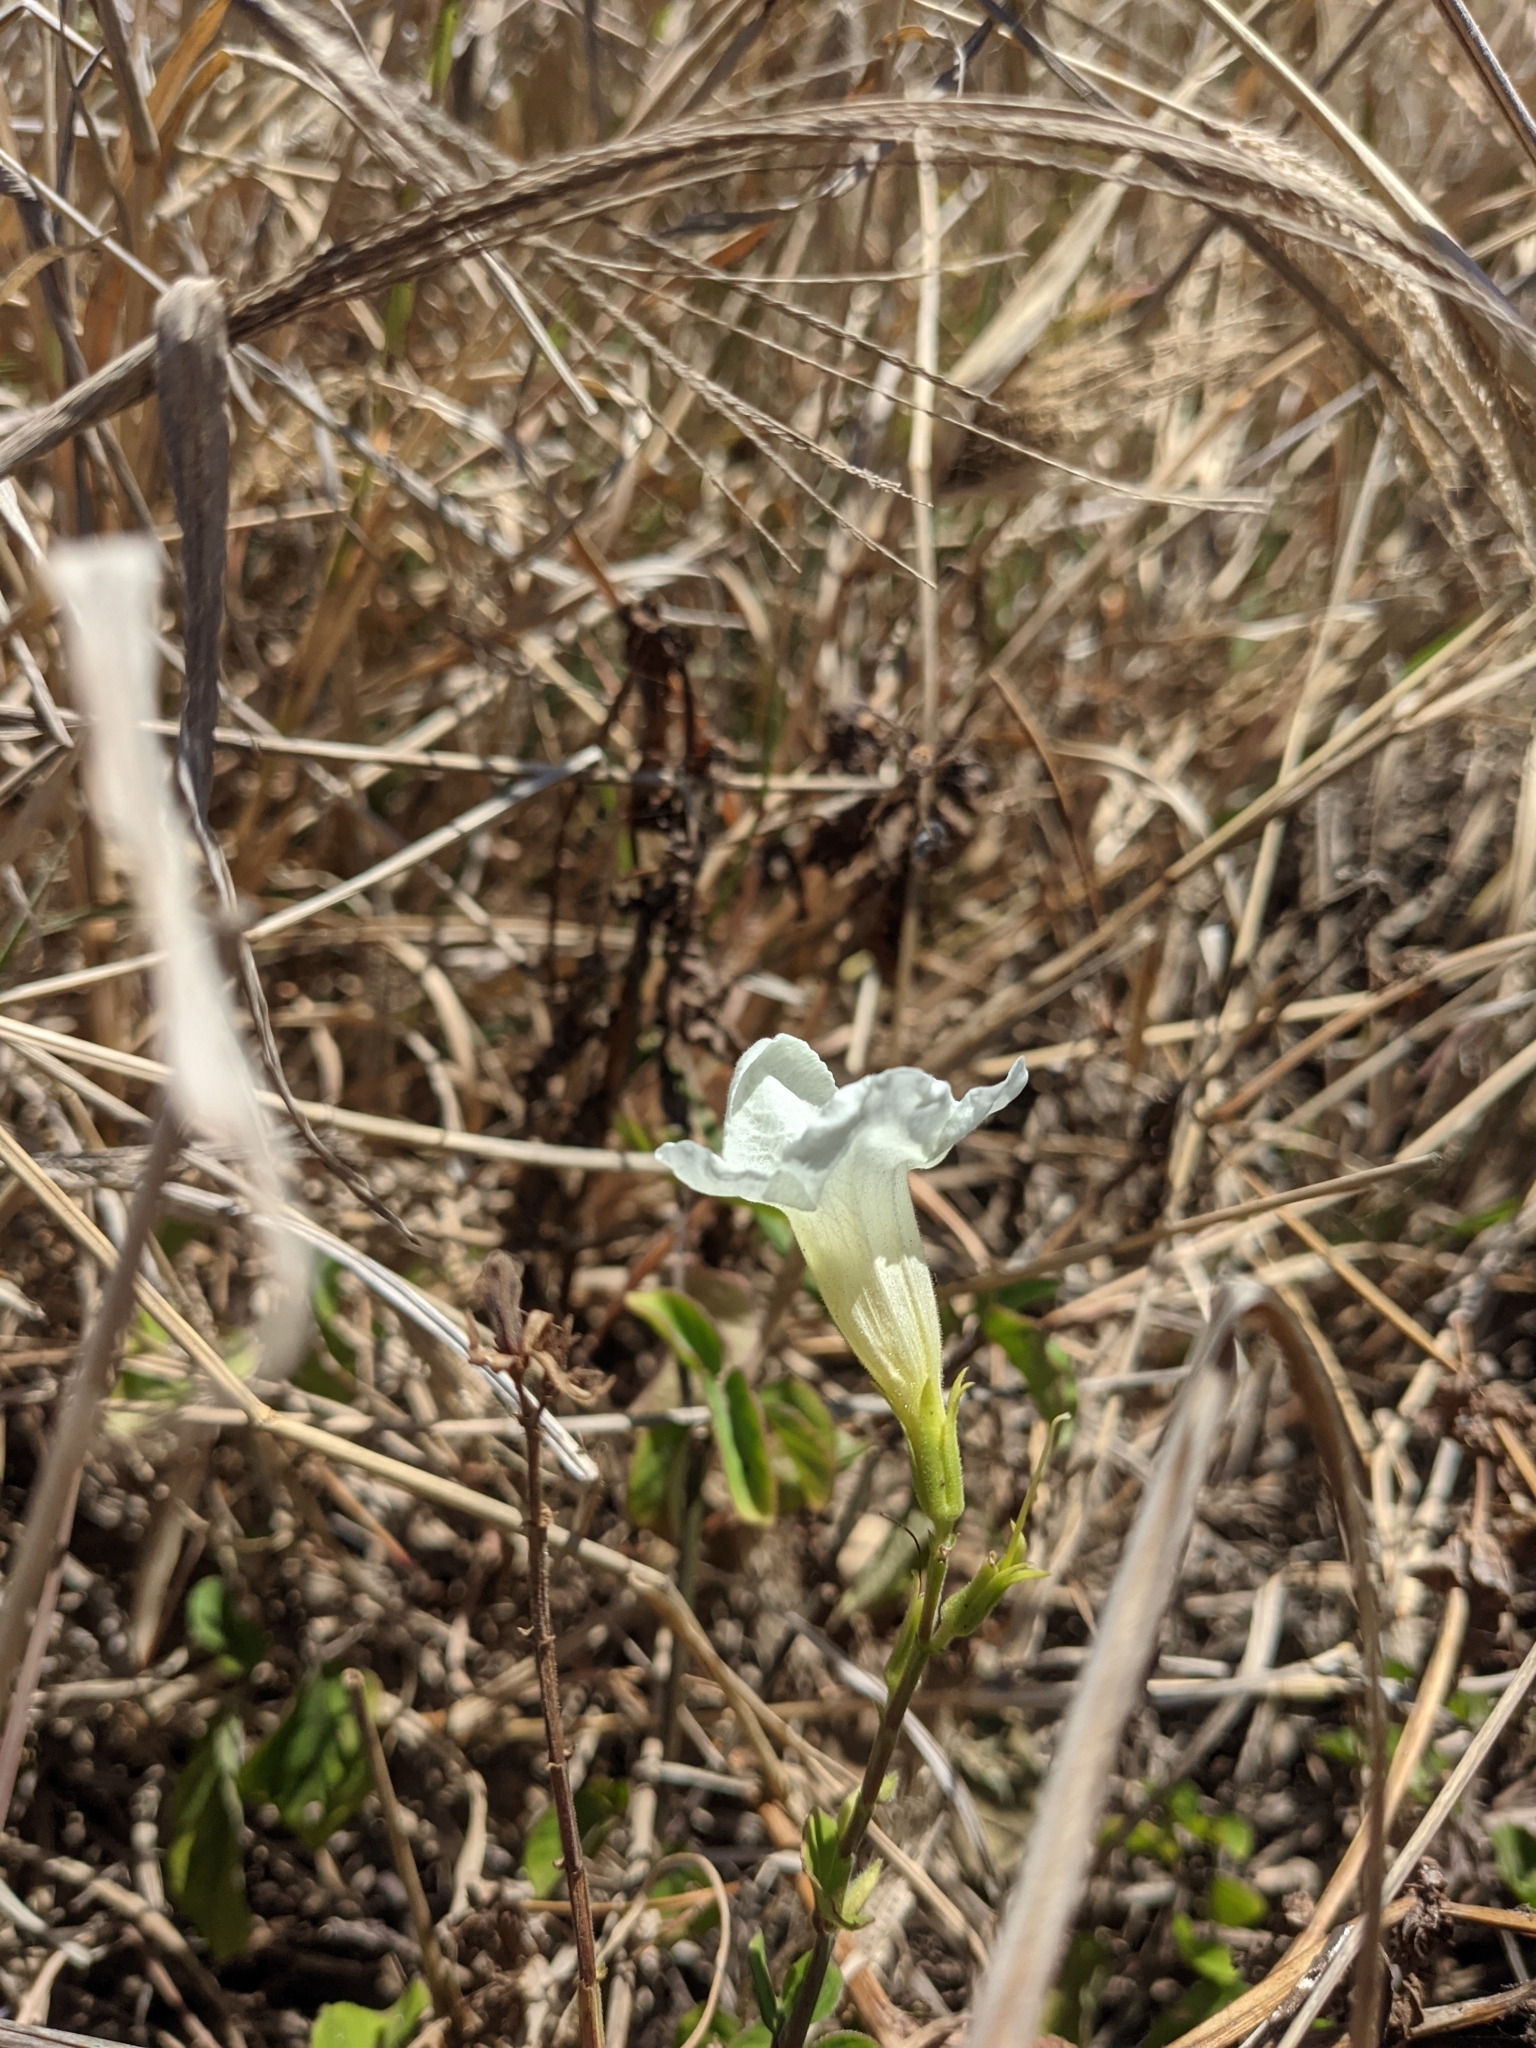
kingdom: Plantae
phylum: Tracheophyta
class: Magnoliopsida
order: Lamiales
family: Acanthaceae
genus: Asystasia
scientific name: Asystasia gangetica
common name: Chinese violet
